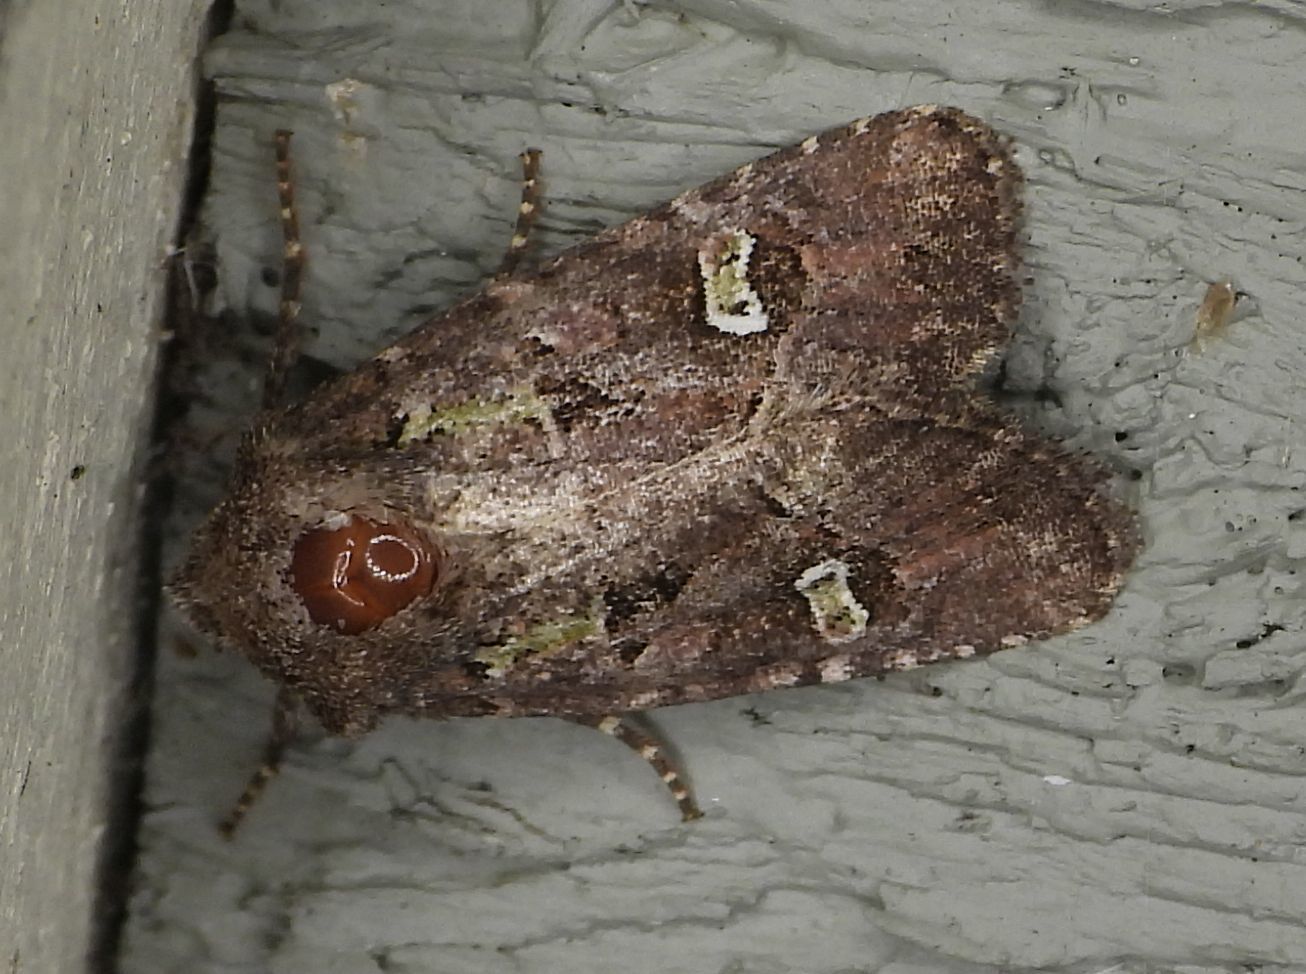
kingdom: Animalia
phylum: Arthropoda
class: Insecta
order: Lepidoptera
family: Noctuidae
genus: Lacinipolia
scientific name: Lacinipolia renigera
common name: Kidney-spotted minor
